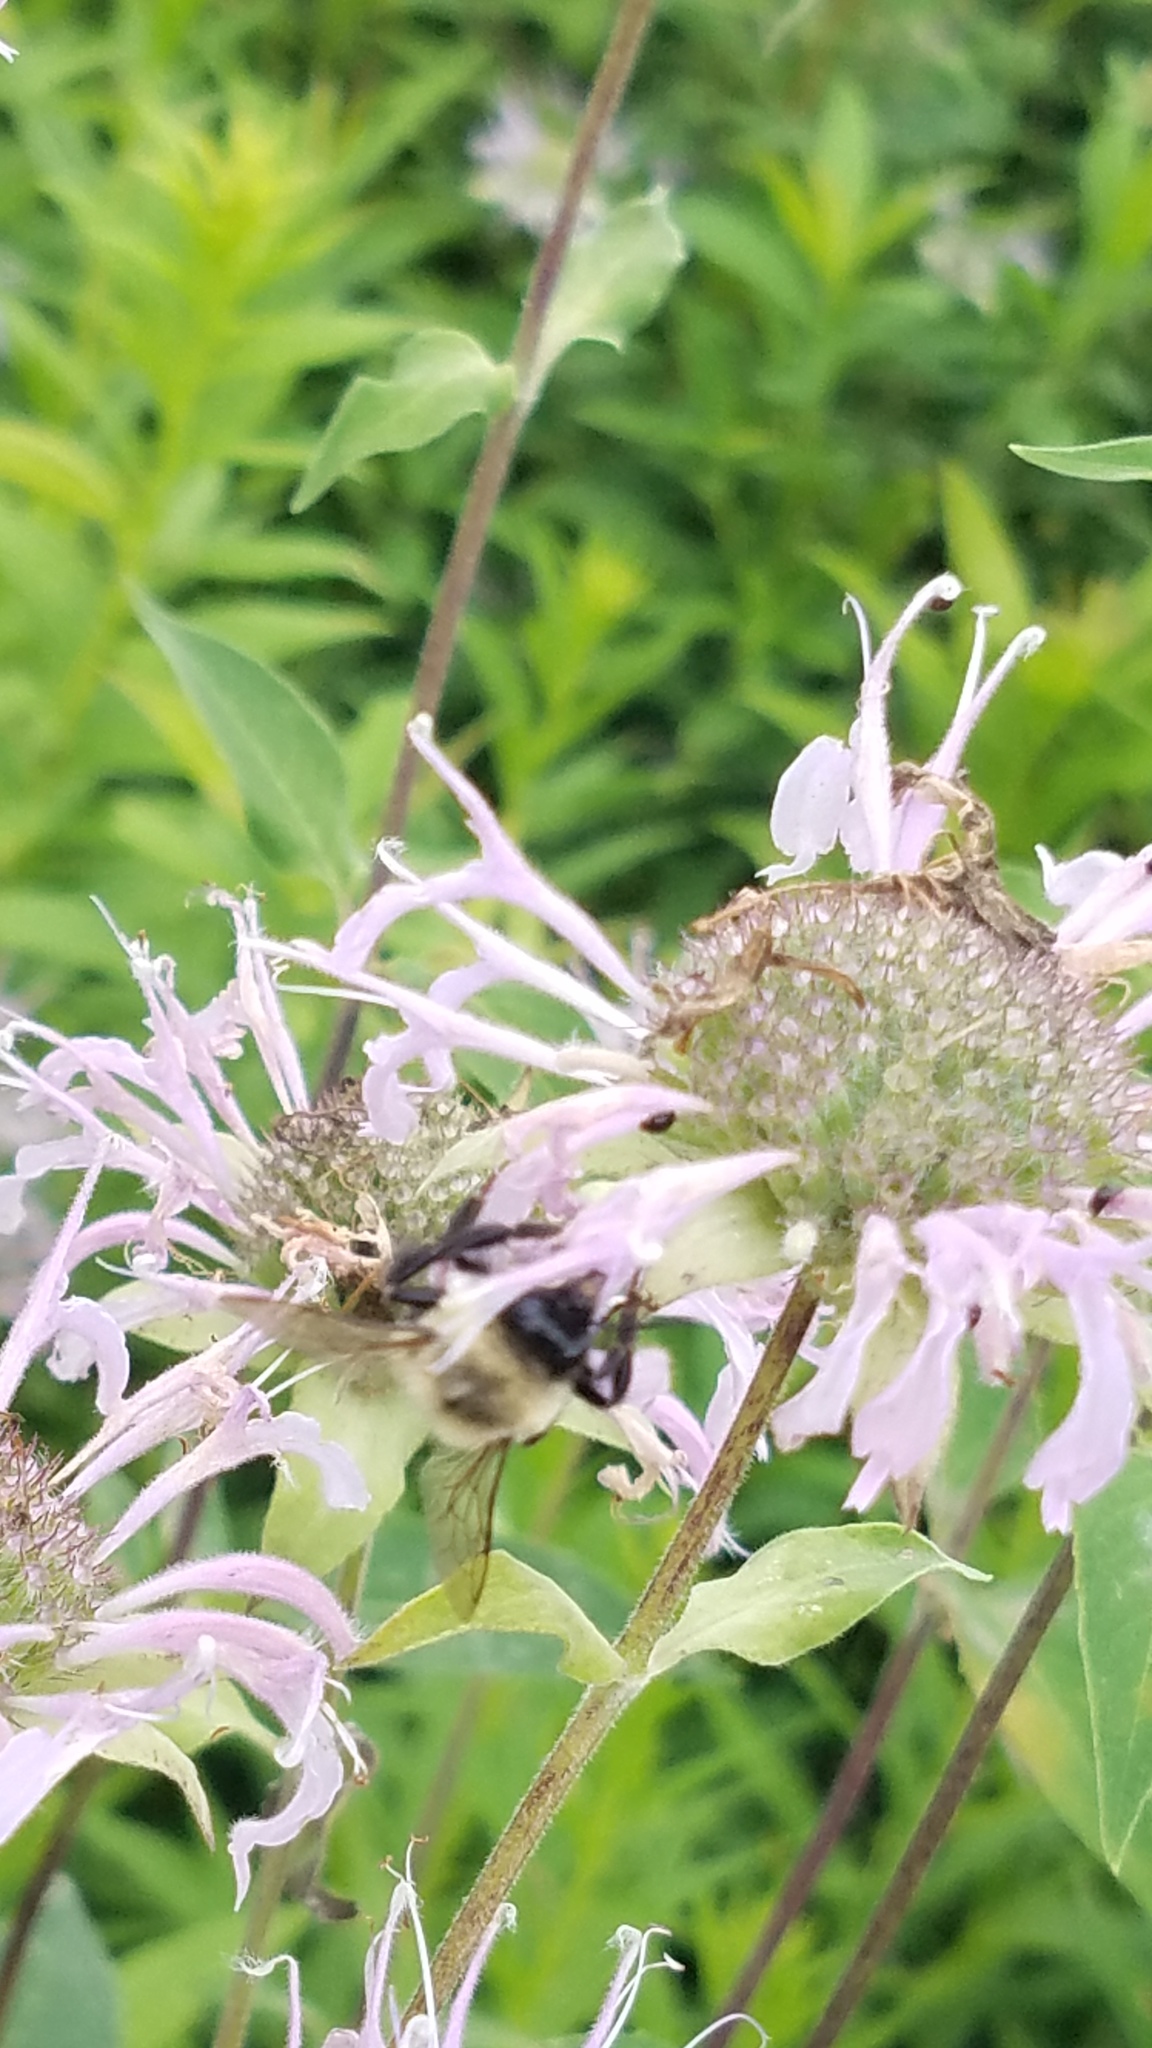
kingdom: Plantae
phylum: Tracheophyta
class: Magnoliopsida
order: Lamiales
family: Lamiaceae
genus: Monarda
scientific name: Monarda fistulosa
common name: Purple beebalm
